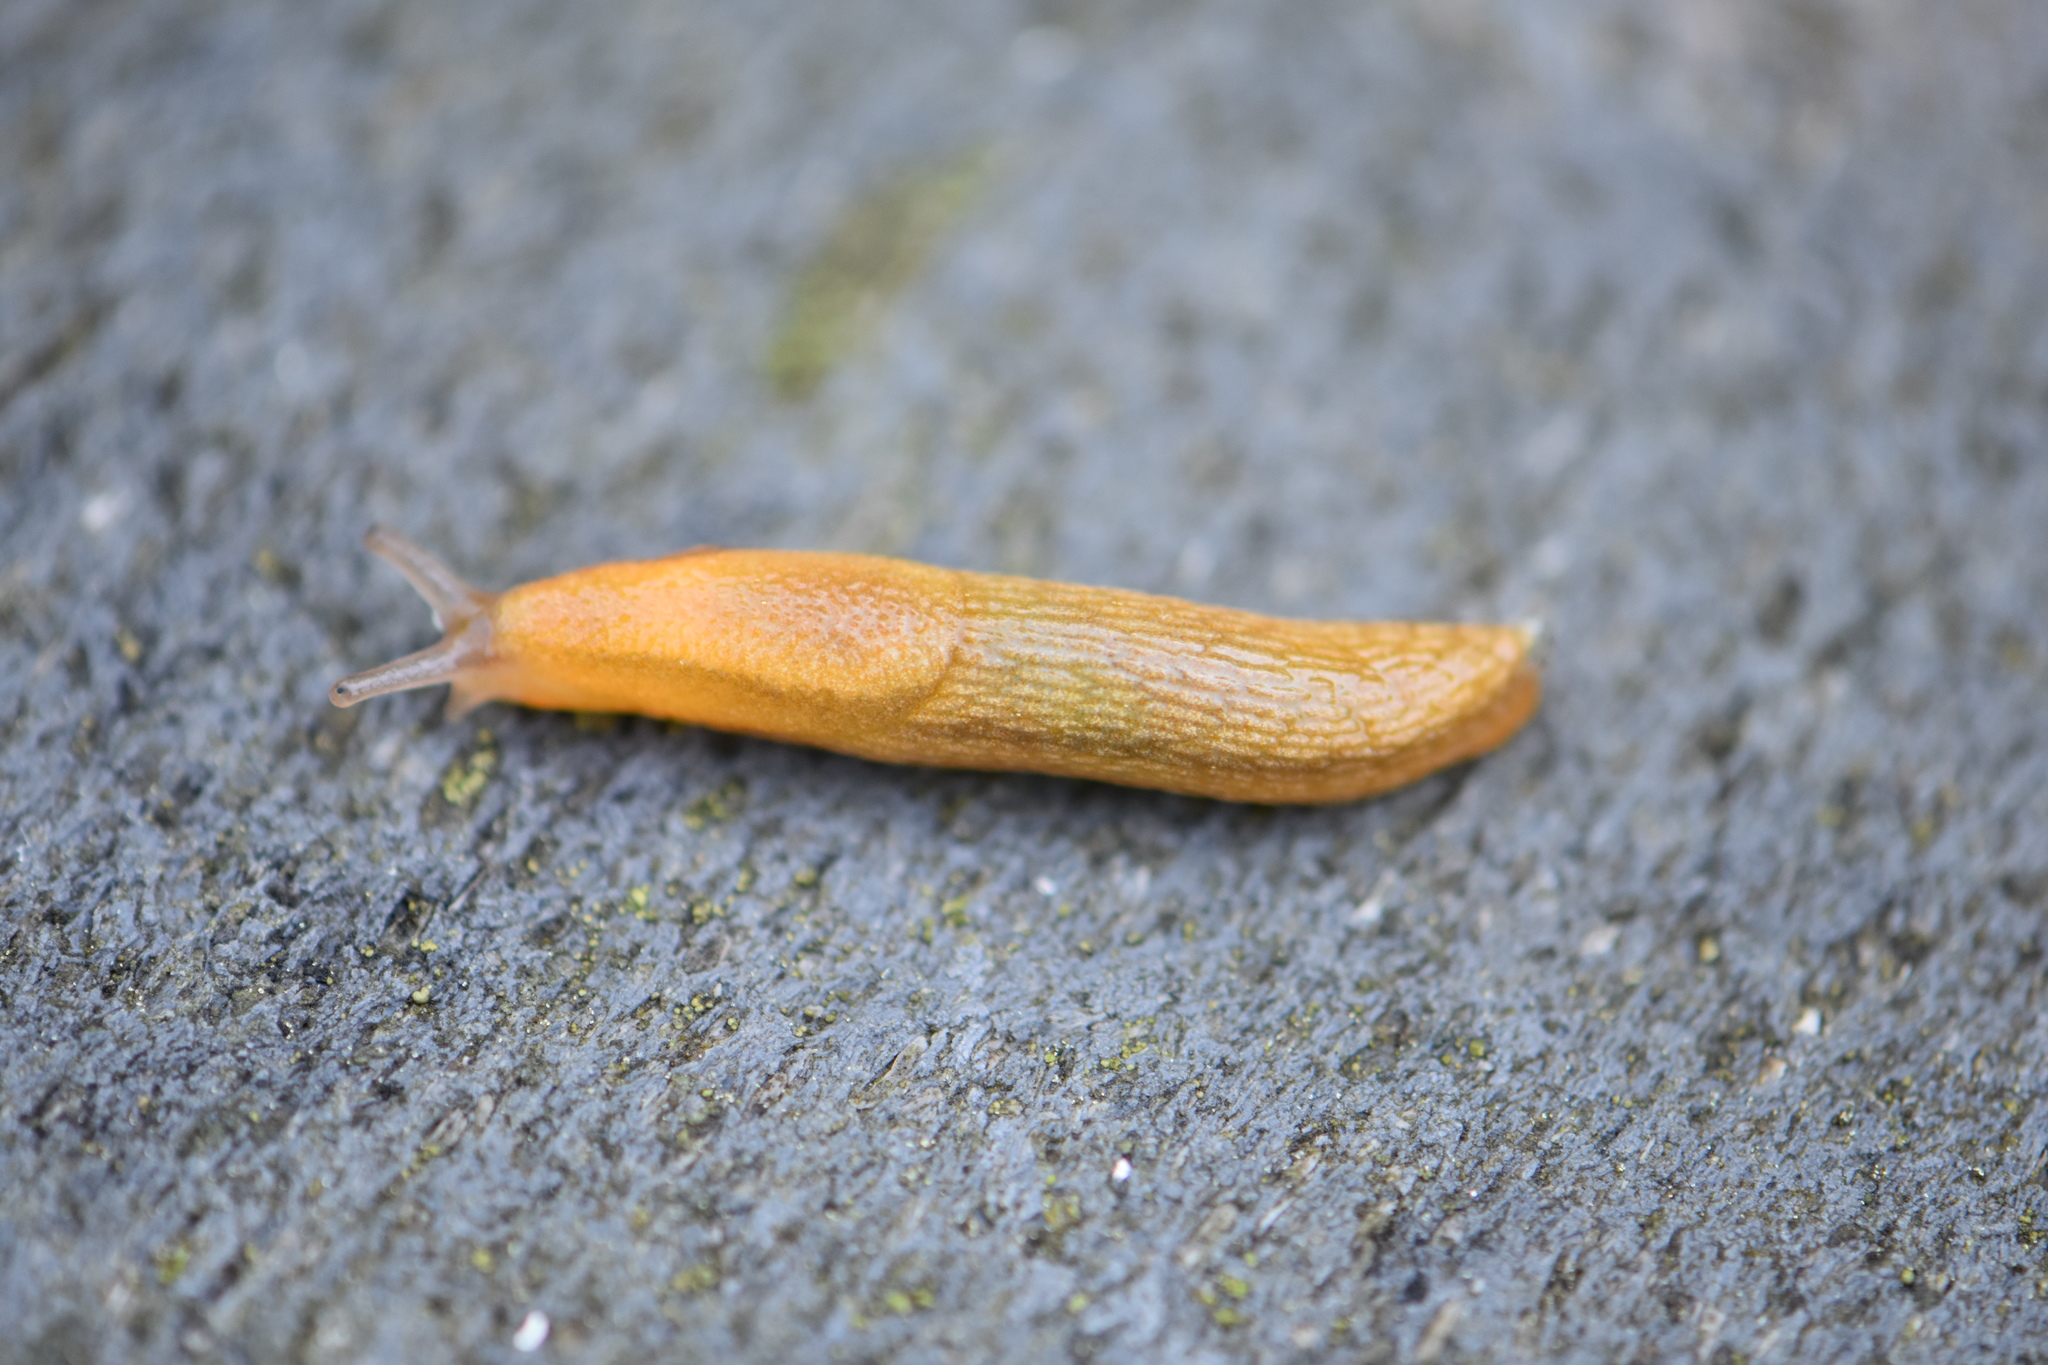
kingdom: Animalia
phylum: Mollusca
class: Gastropoda
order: Stylommatophora
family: Arionidae
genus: Arion
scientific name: Arion subfuscus
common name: Dusky arion
